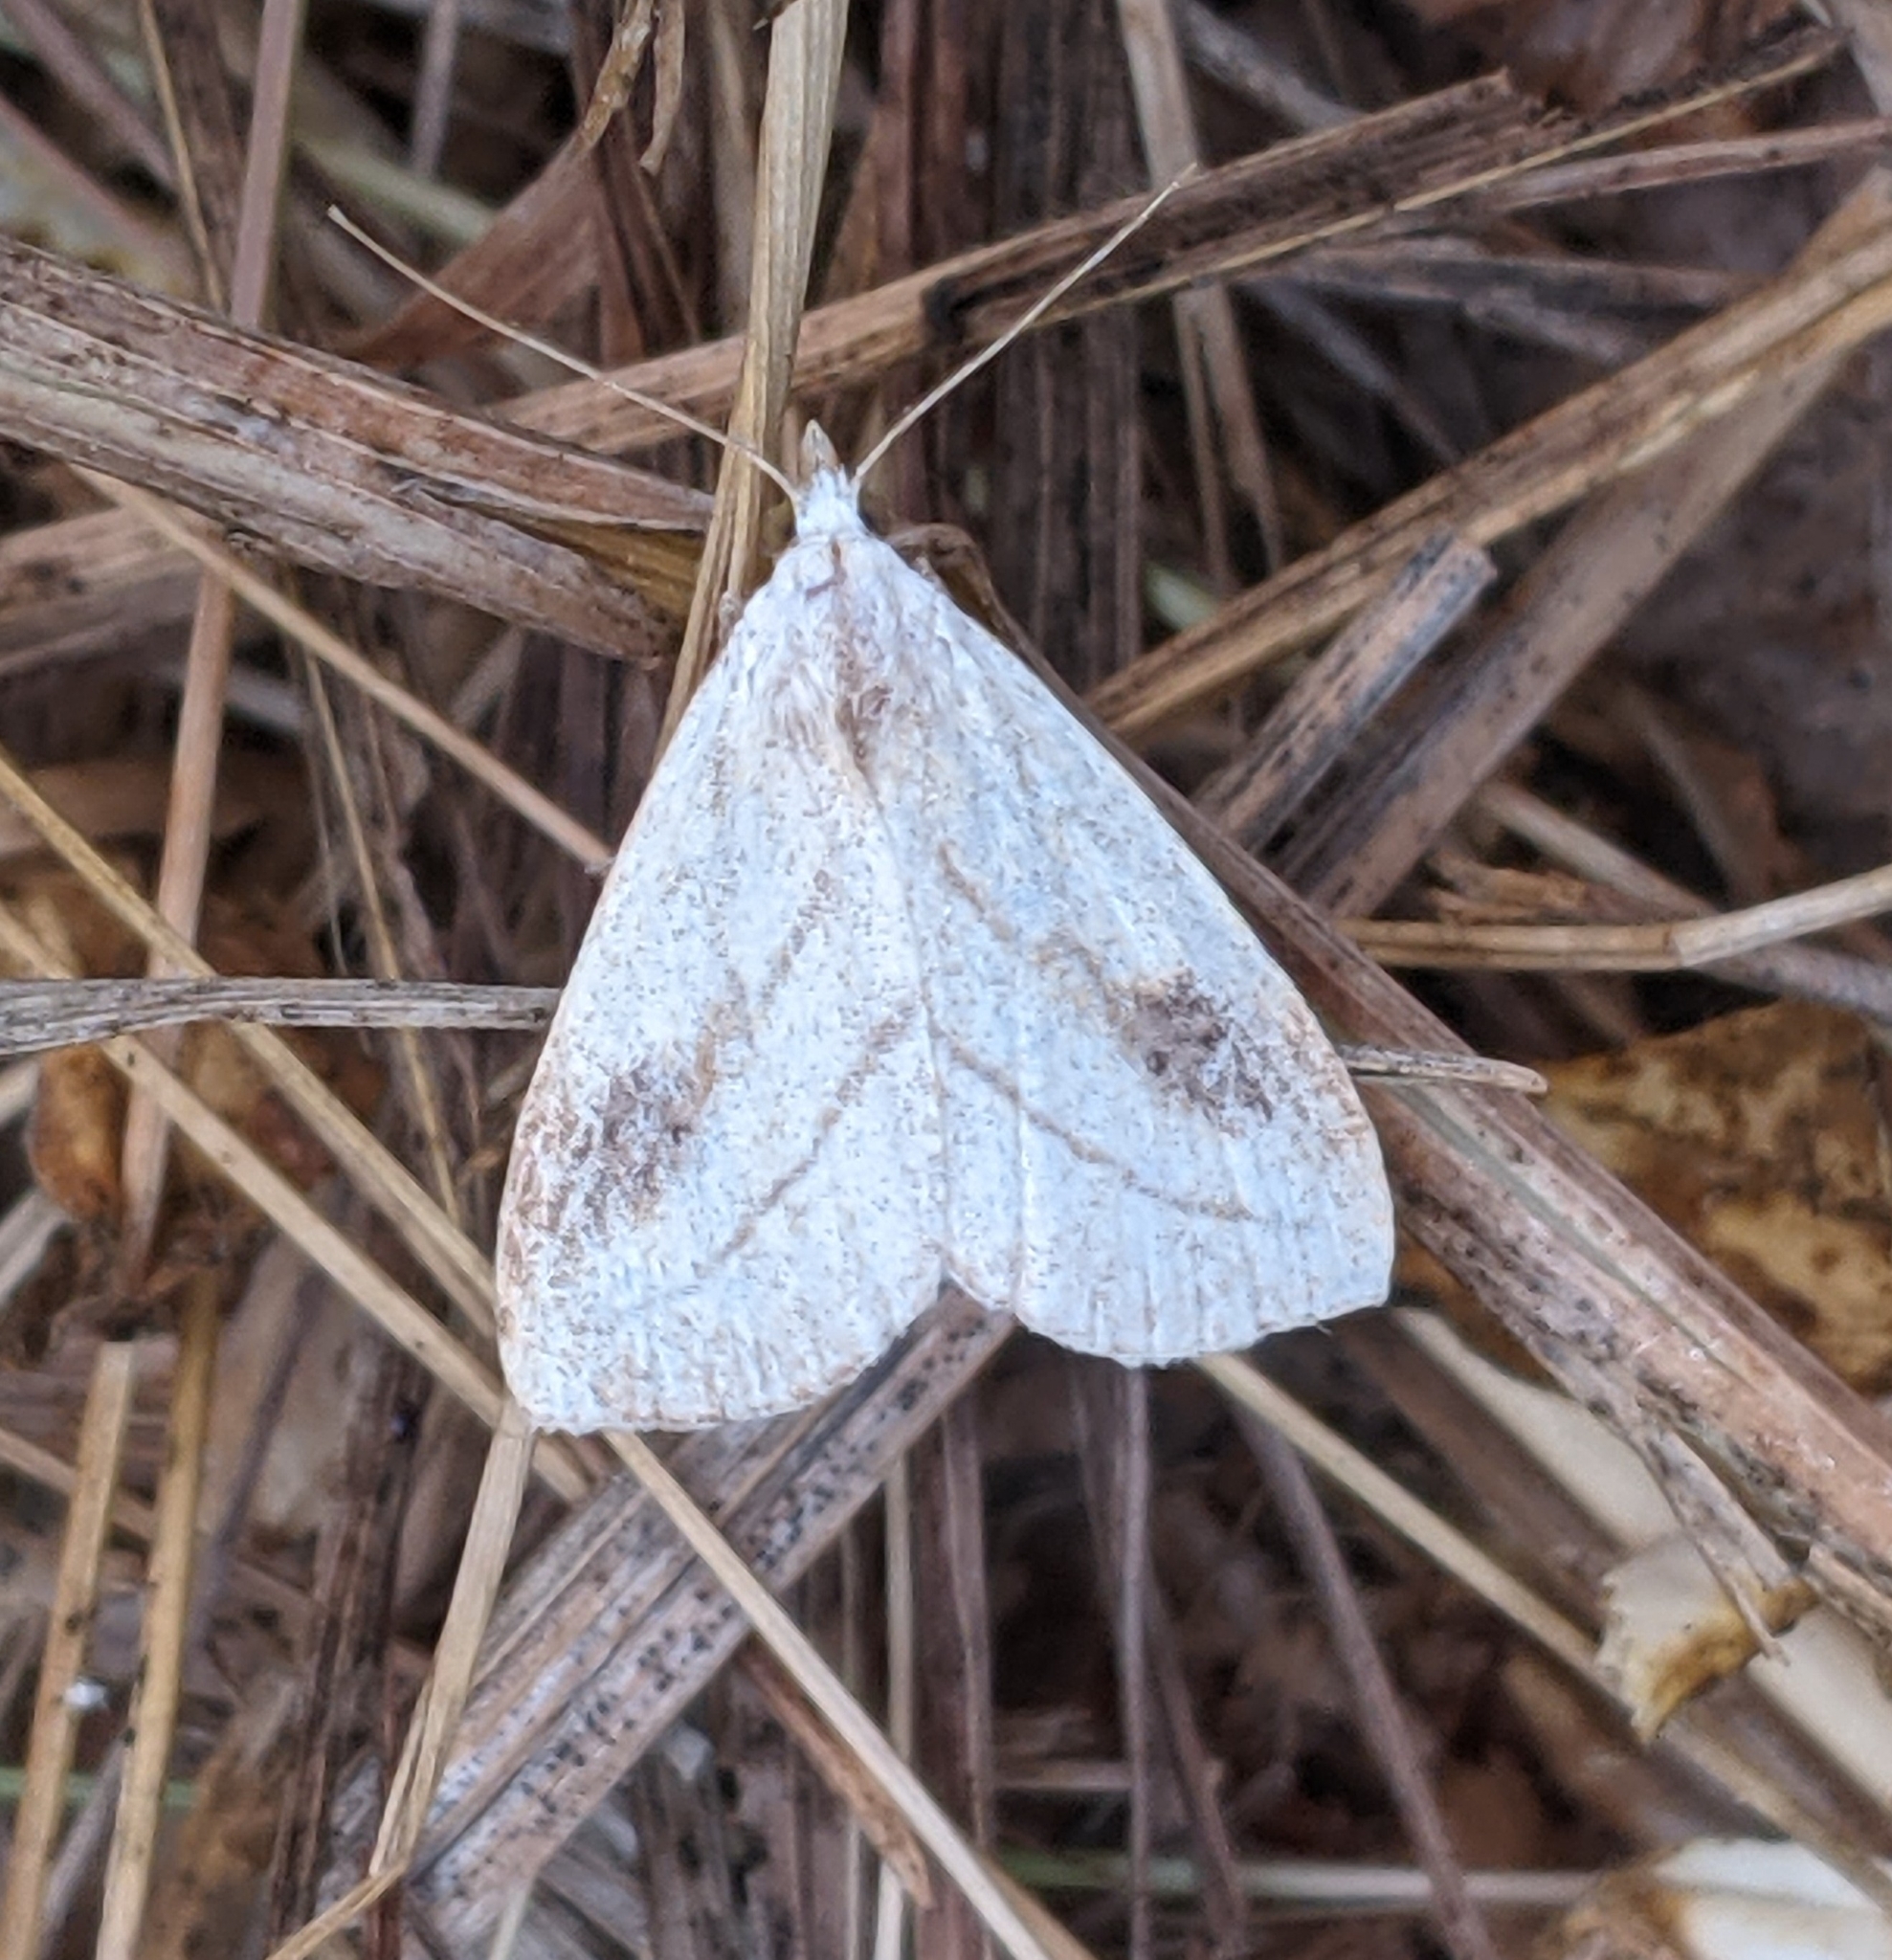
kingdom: Animalia
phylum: Arthropoda
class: Insecta
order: Lepidoptera
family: Erebidae
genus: Rivula
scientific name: Rivula propinqualis
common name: Spotted grass moth
